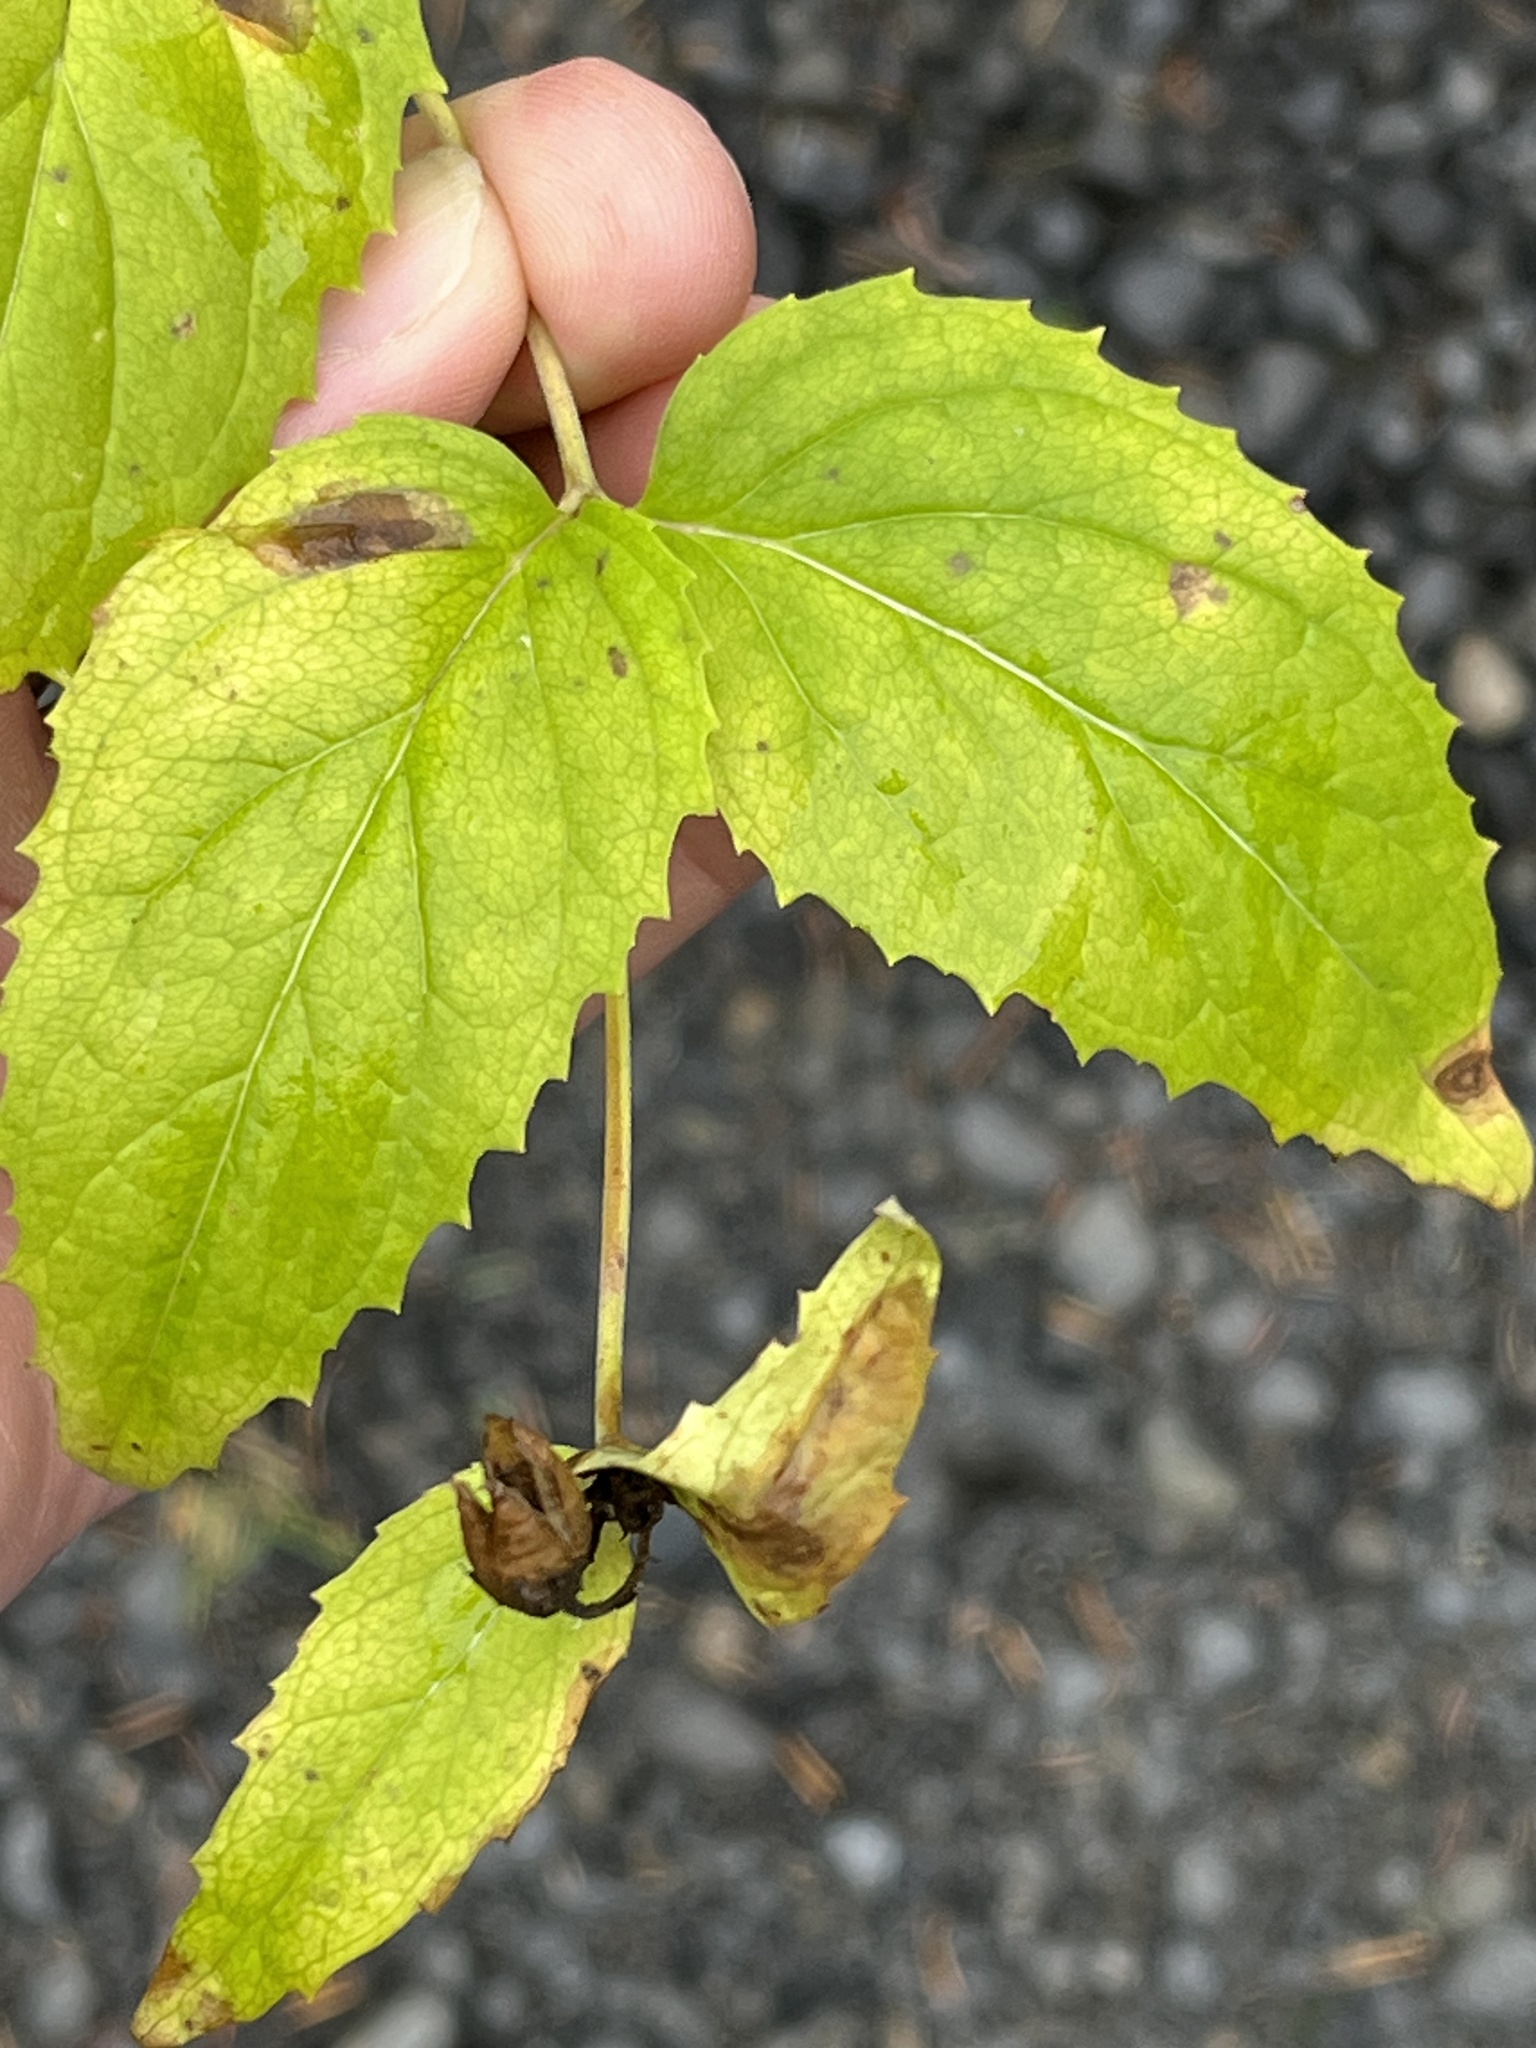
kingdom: Plantae
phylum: Tracheophyta
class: Magnoliopsida
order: Lamiales
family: Plantaginaceae
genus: Nothochelone
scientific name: Nothochelone nemorosa
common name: Woodland beardtongue
